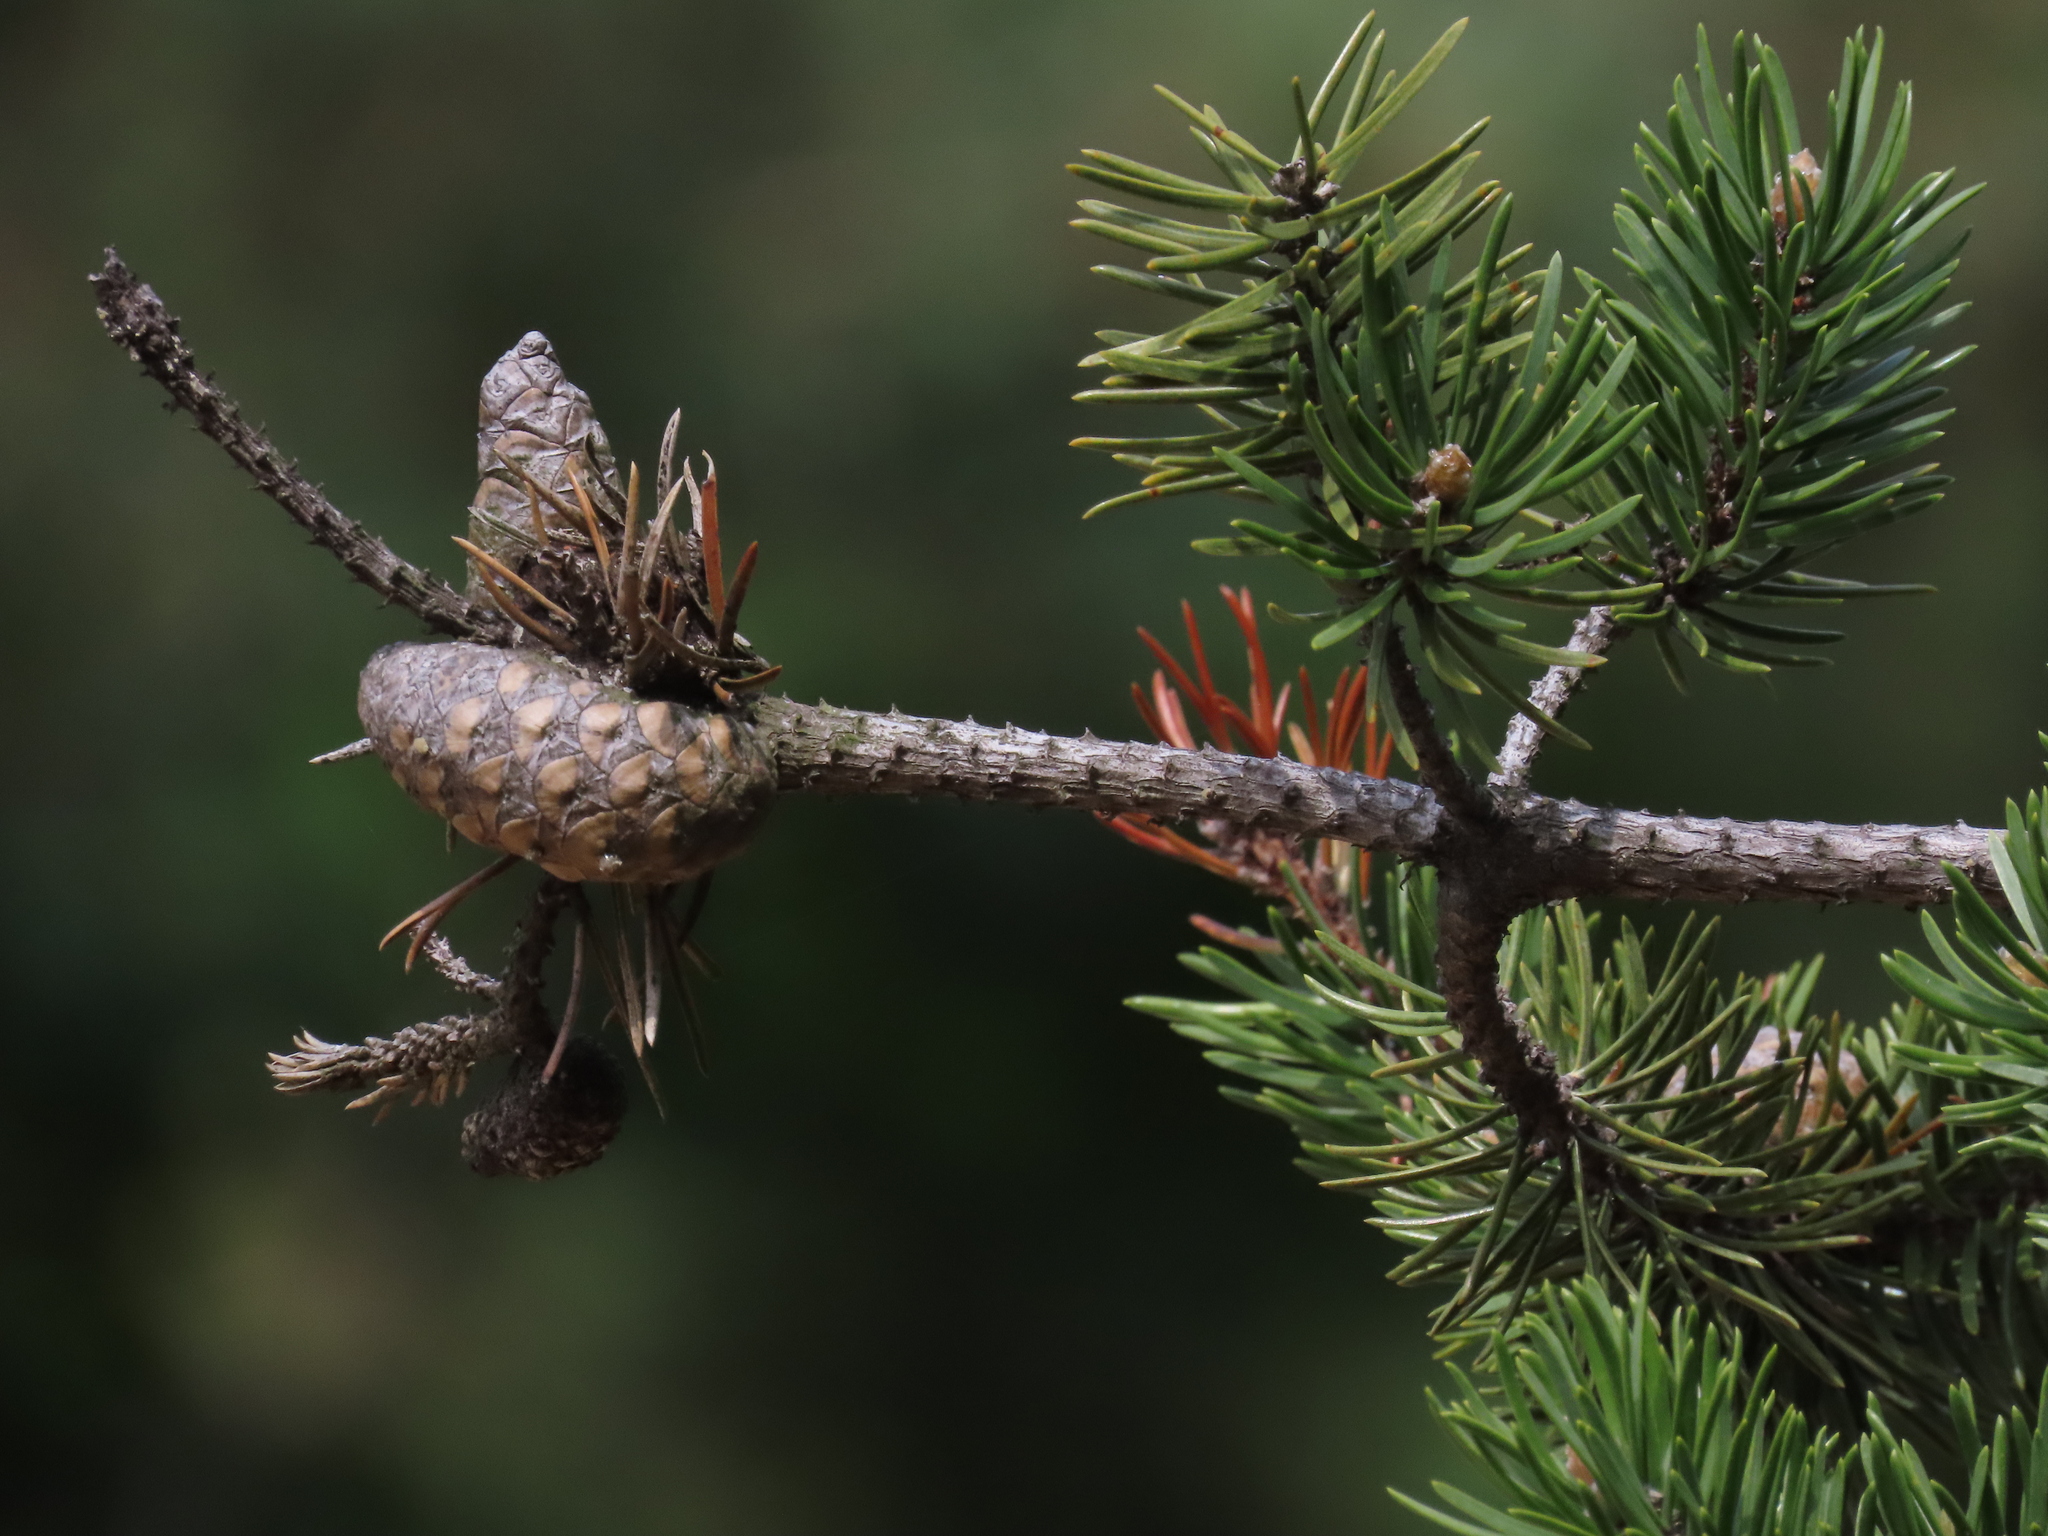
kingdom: Plantae
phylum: Tracheophyta
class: Pinopsida
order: Pinales
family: Pinaceae
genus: Pinus
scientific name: Pinus banksiana
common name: Jack pine
